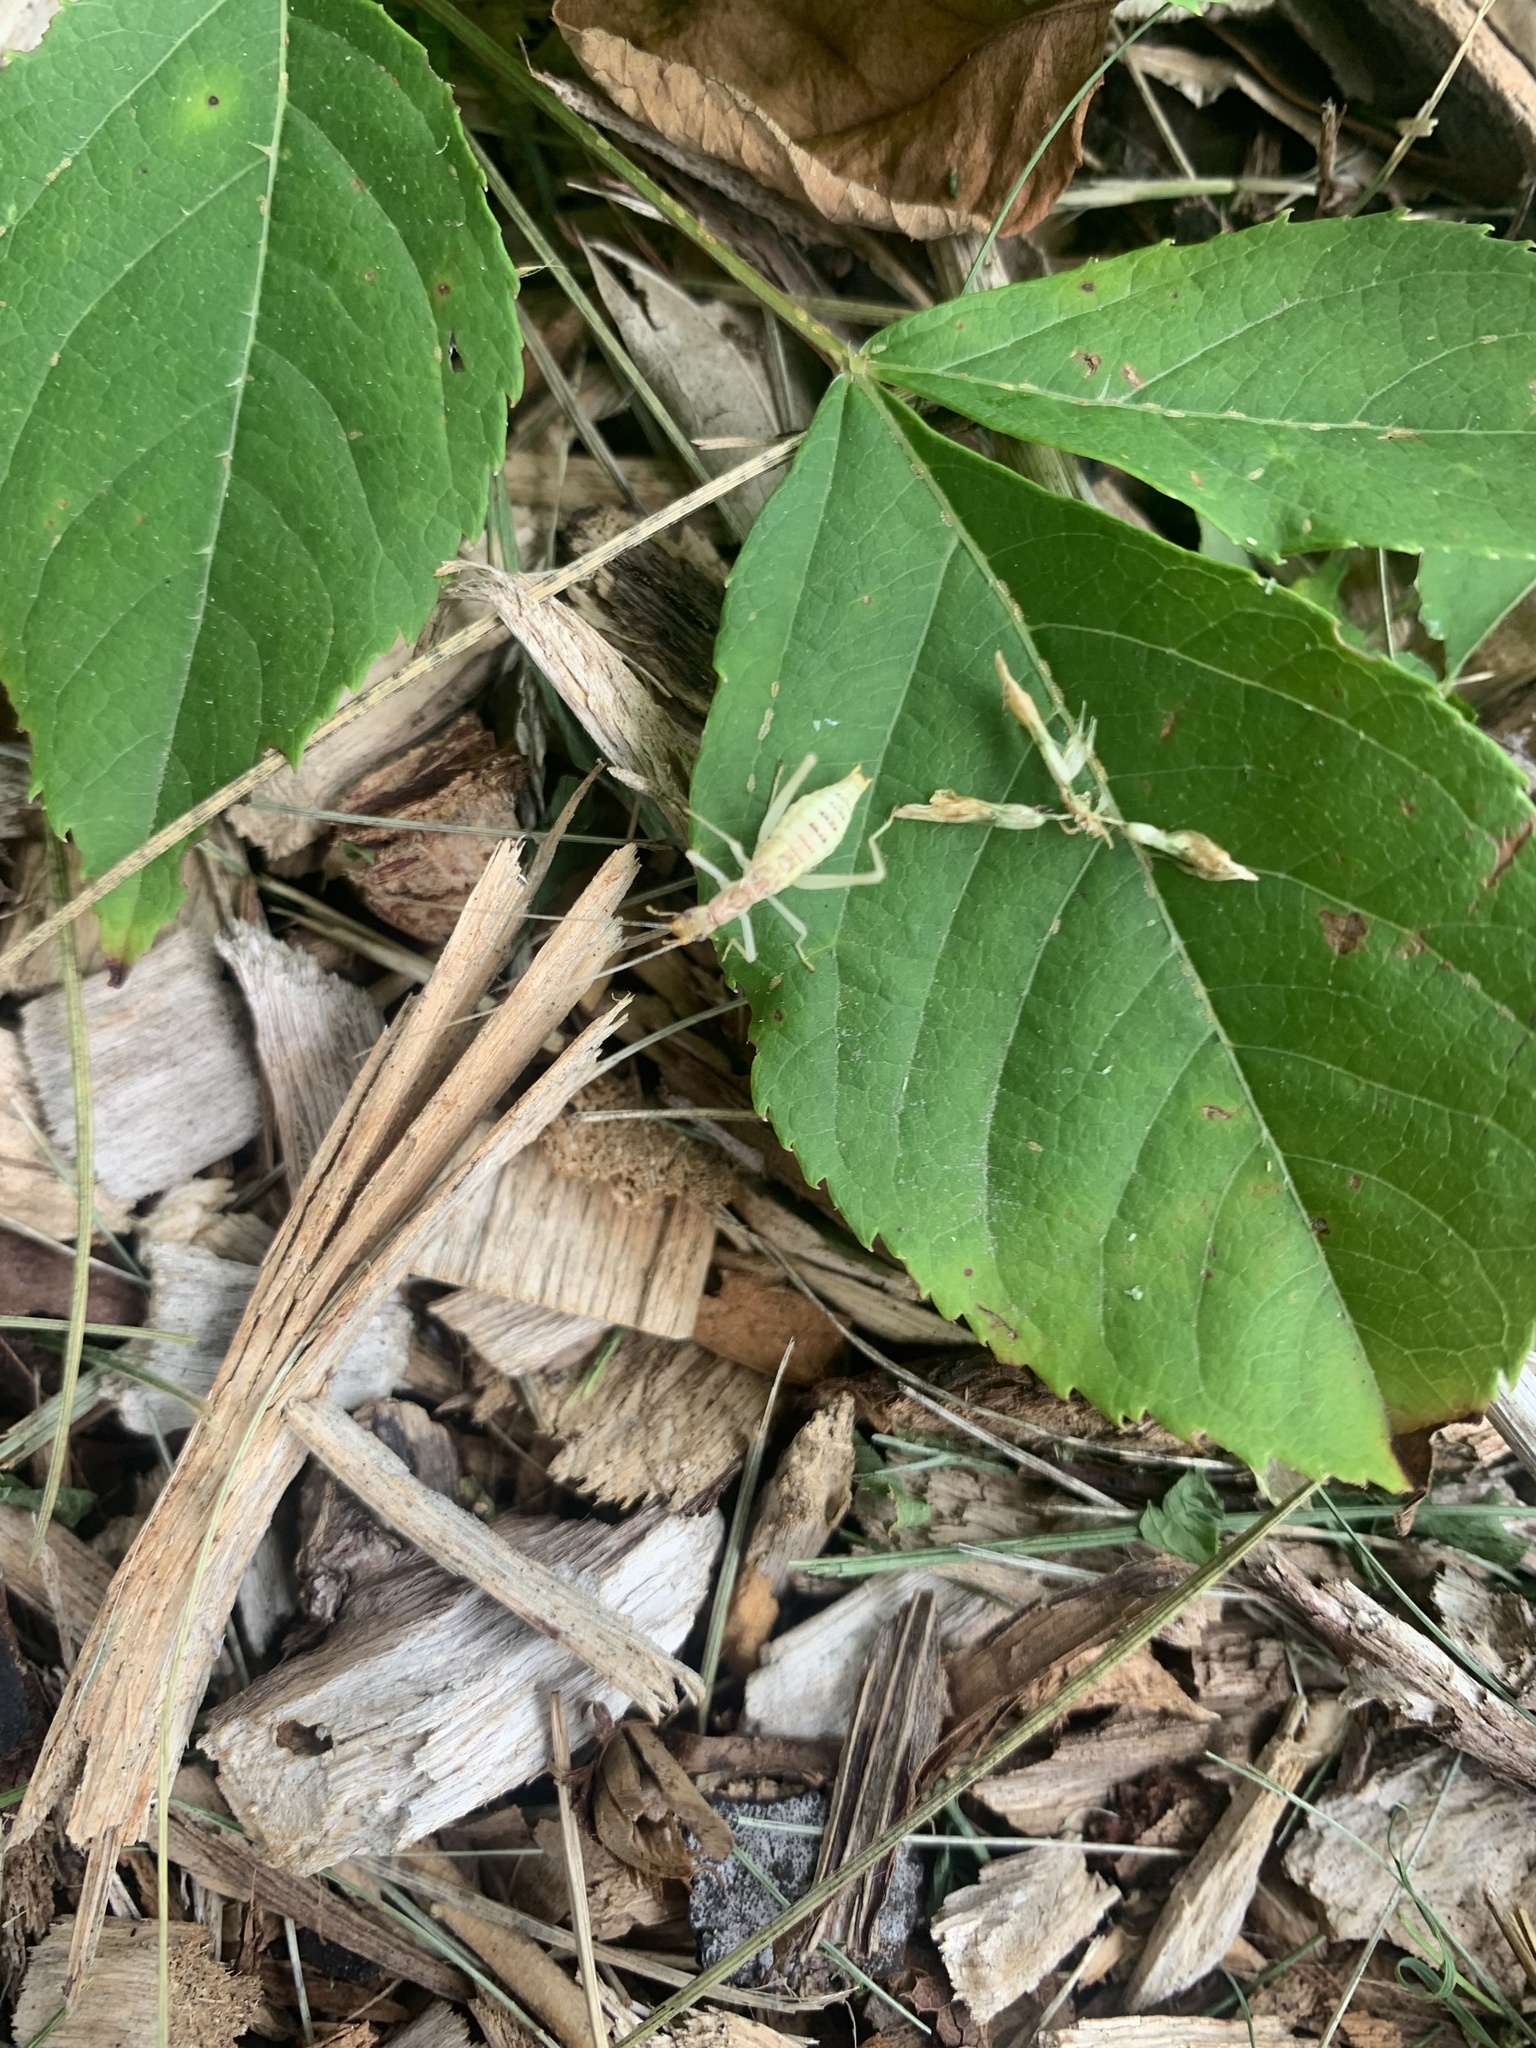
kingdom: Animalia
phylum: Arthropoda
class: Insecta
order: Orthoptera
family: Gryllidae
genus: Neoxabea
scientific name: Neoxabea bipunctata
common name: Two-spotted tree cricket
